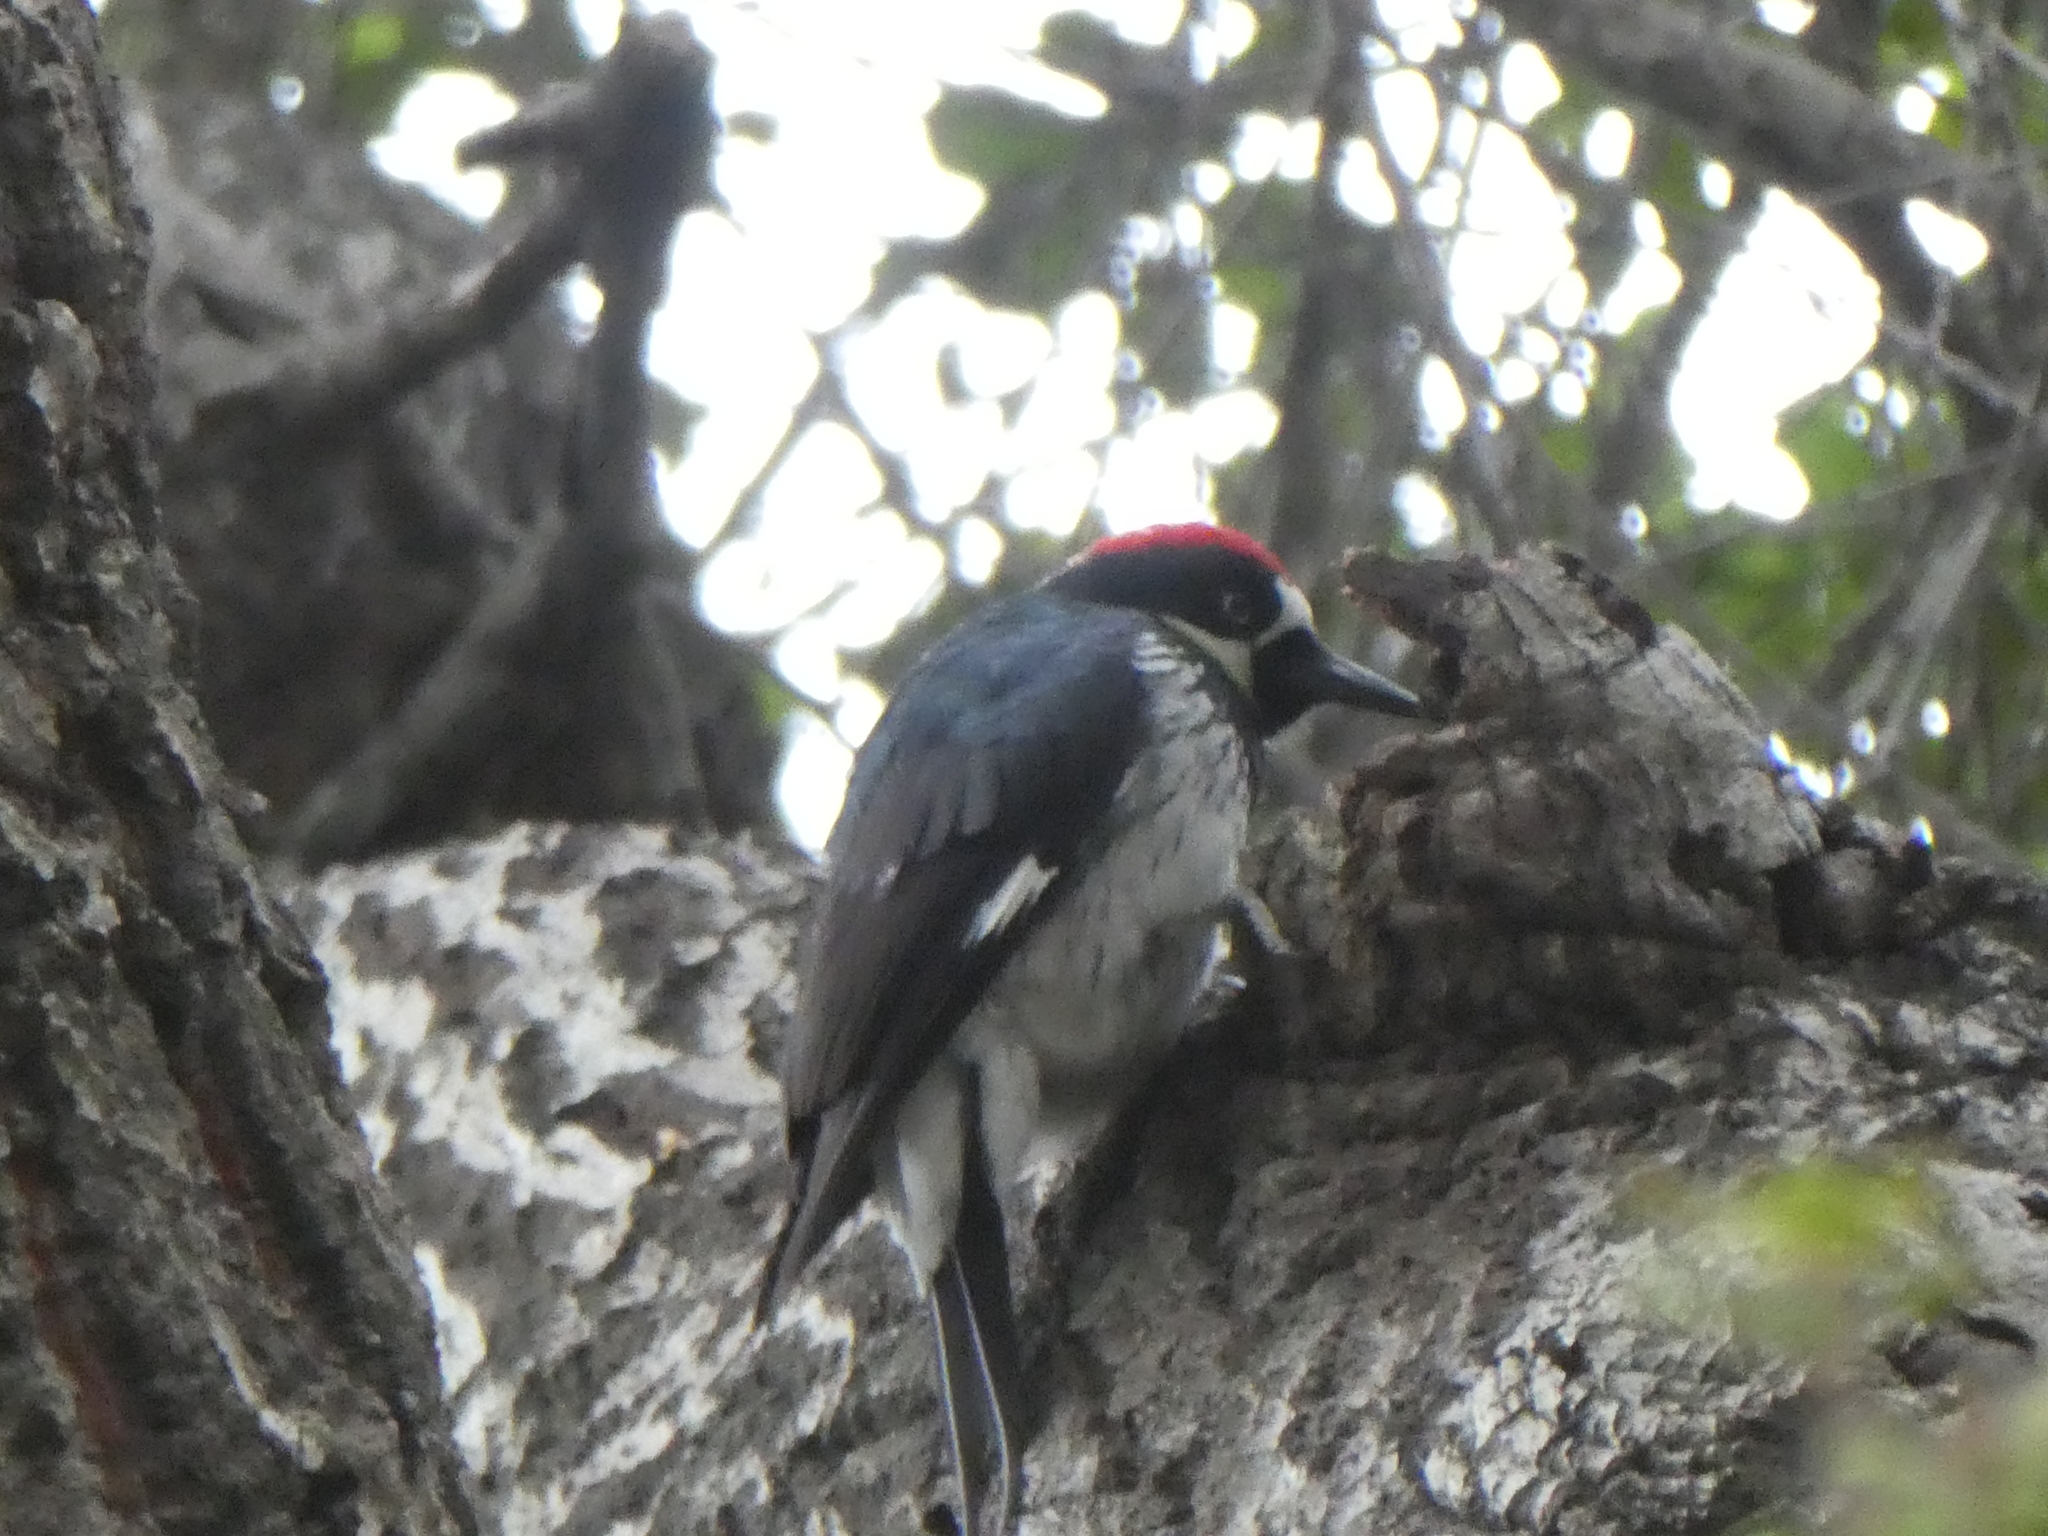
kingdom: Animalia
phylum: Chordata
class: Aves
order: Piciformes
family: Picidae
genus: Melanerpes
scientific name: Melanerpes formicivorus
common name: Acorn woodpecker
